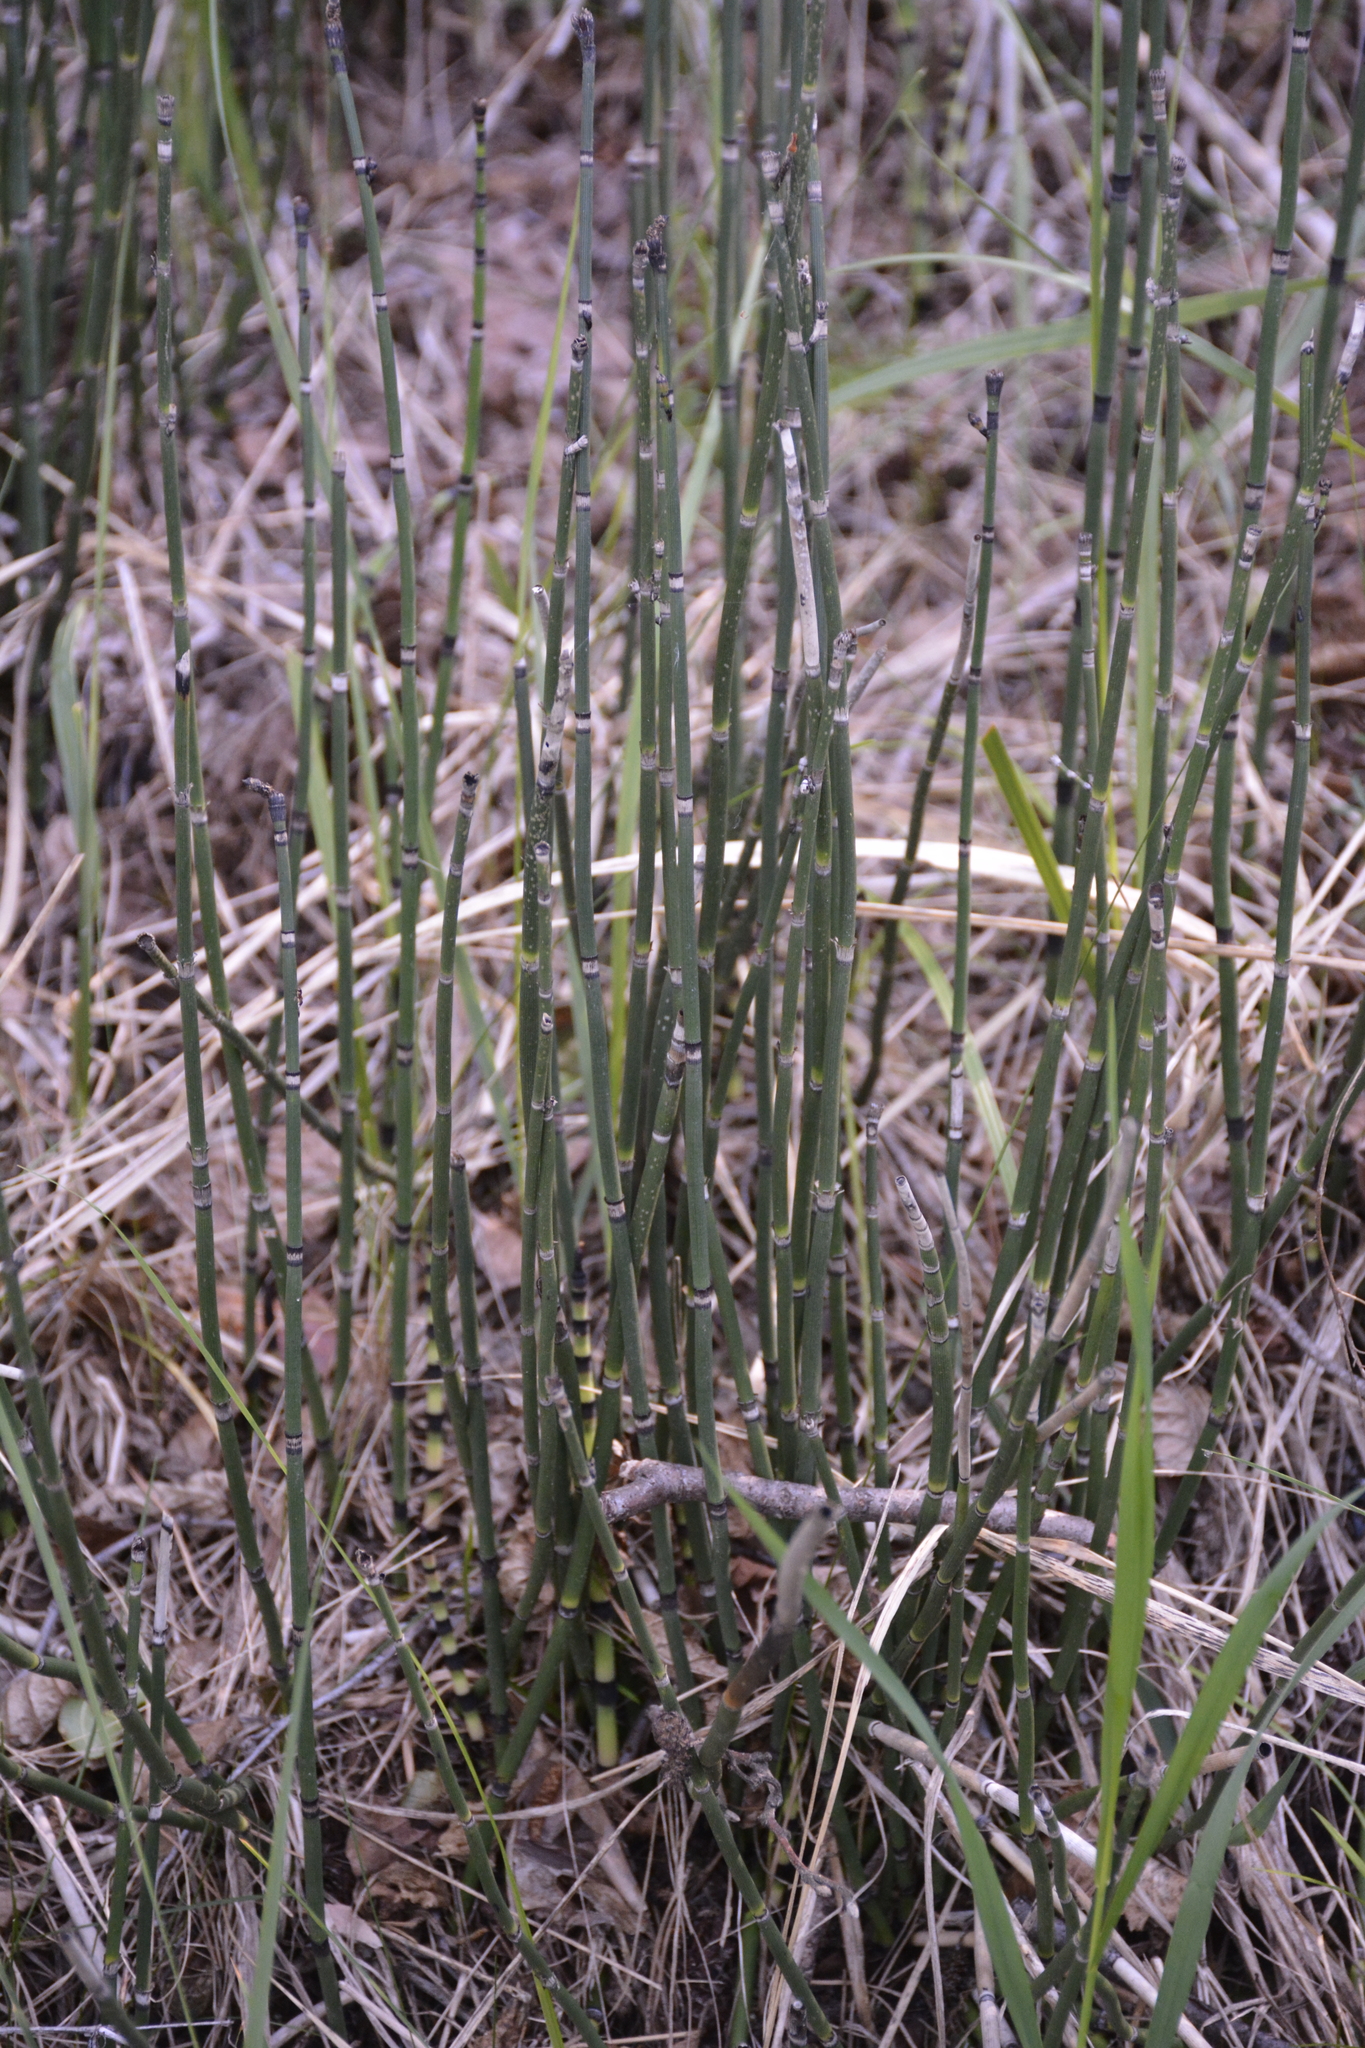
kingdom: Plantae
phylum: Tracheophyta
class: Polypodiopsida
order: Equisetales
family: Equisetaceae
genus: Equisetum
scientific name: Equisetum hyemale
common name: Rough horsetail
